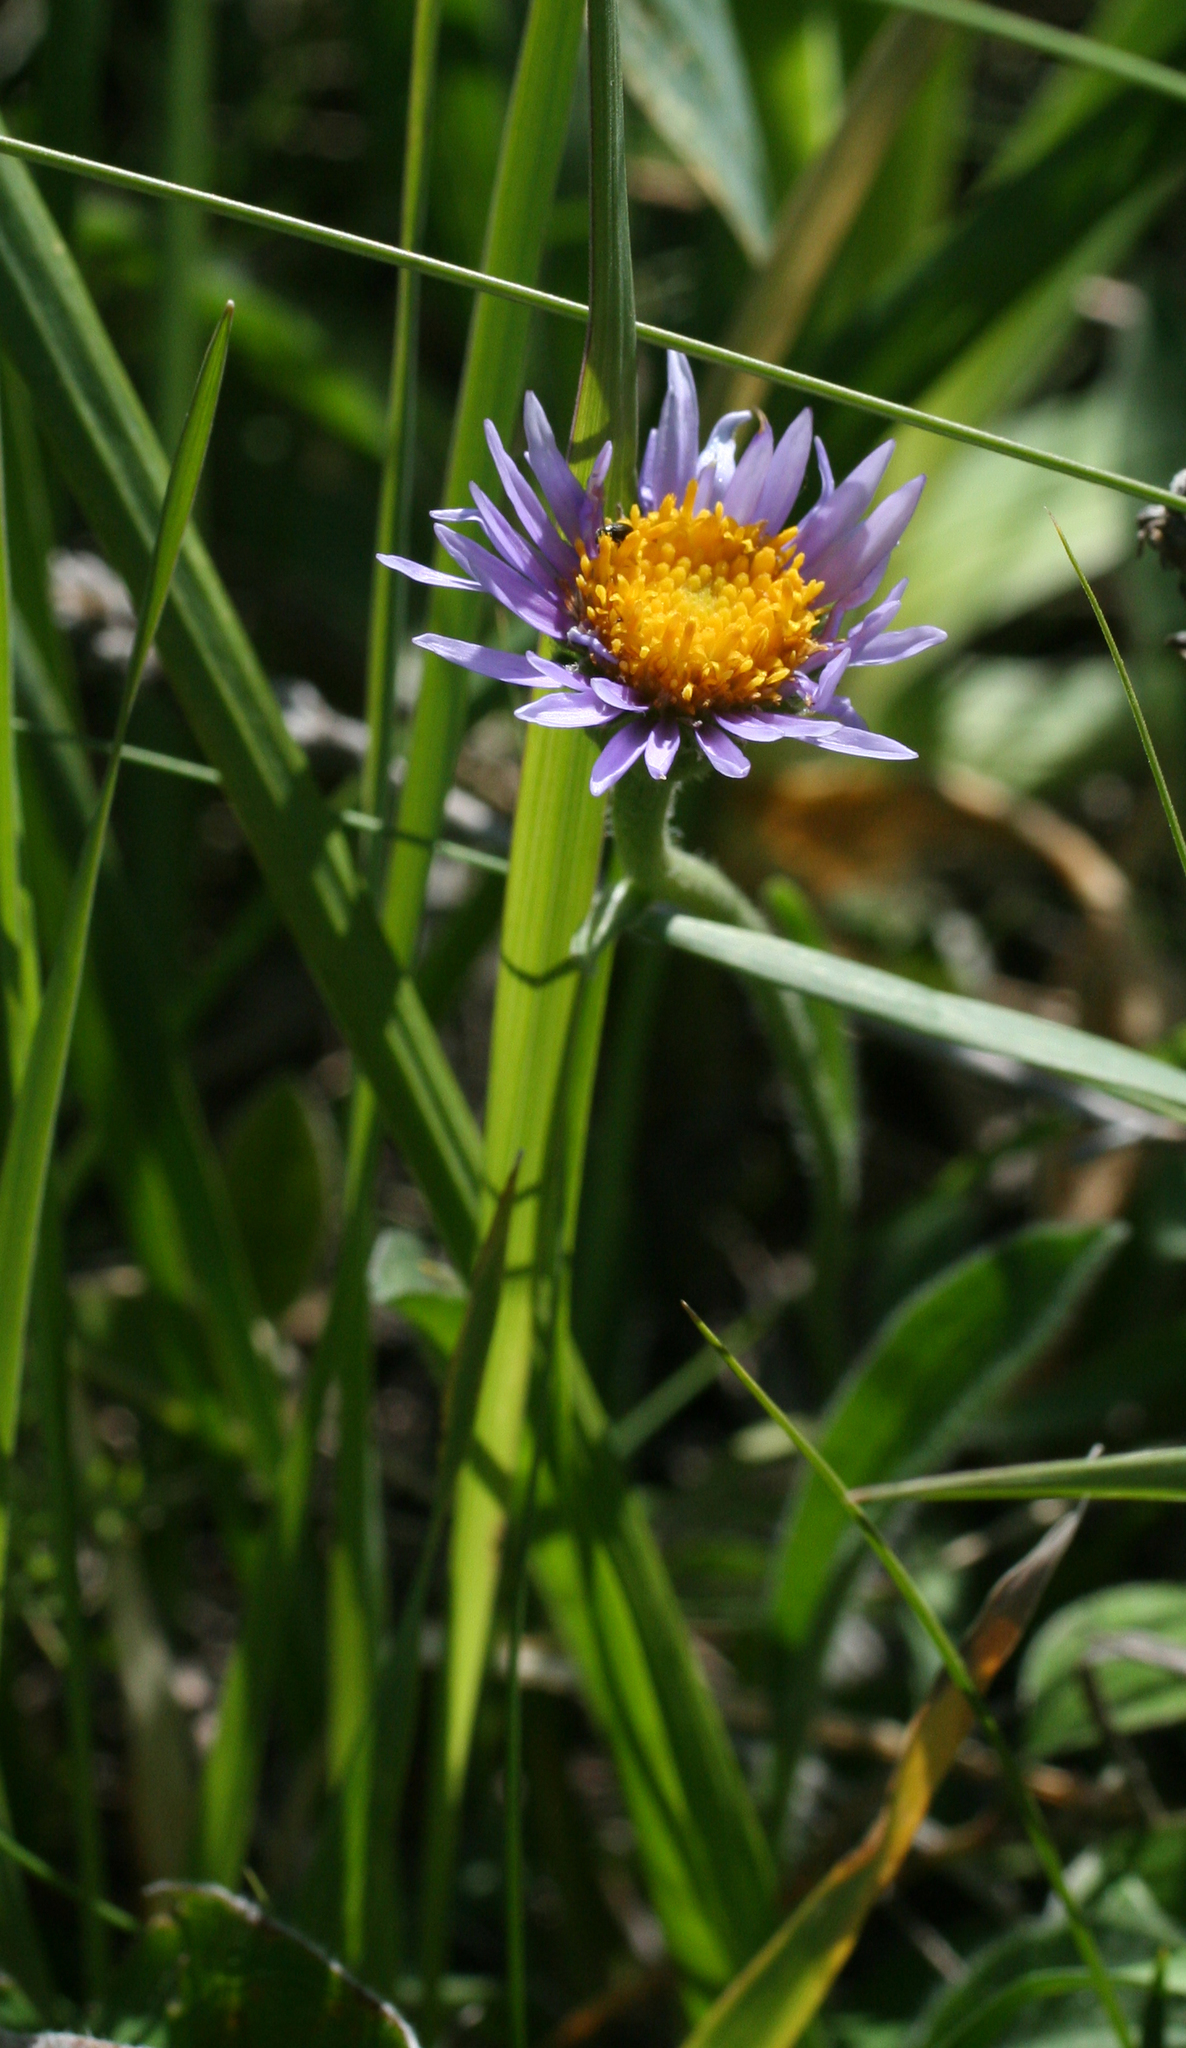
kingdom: Plantae
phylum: Tracheophyta
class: Magnoliopsida
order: Asterales
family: Asteraceae
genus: Aster
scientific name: Aster alpinus
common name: Alpine aster
